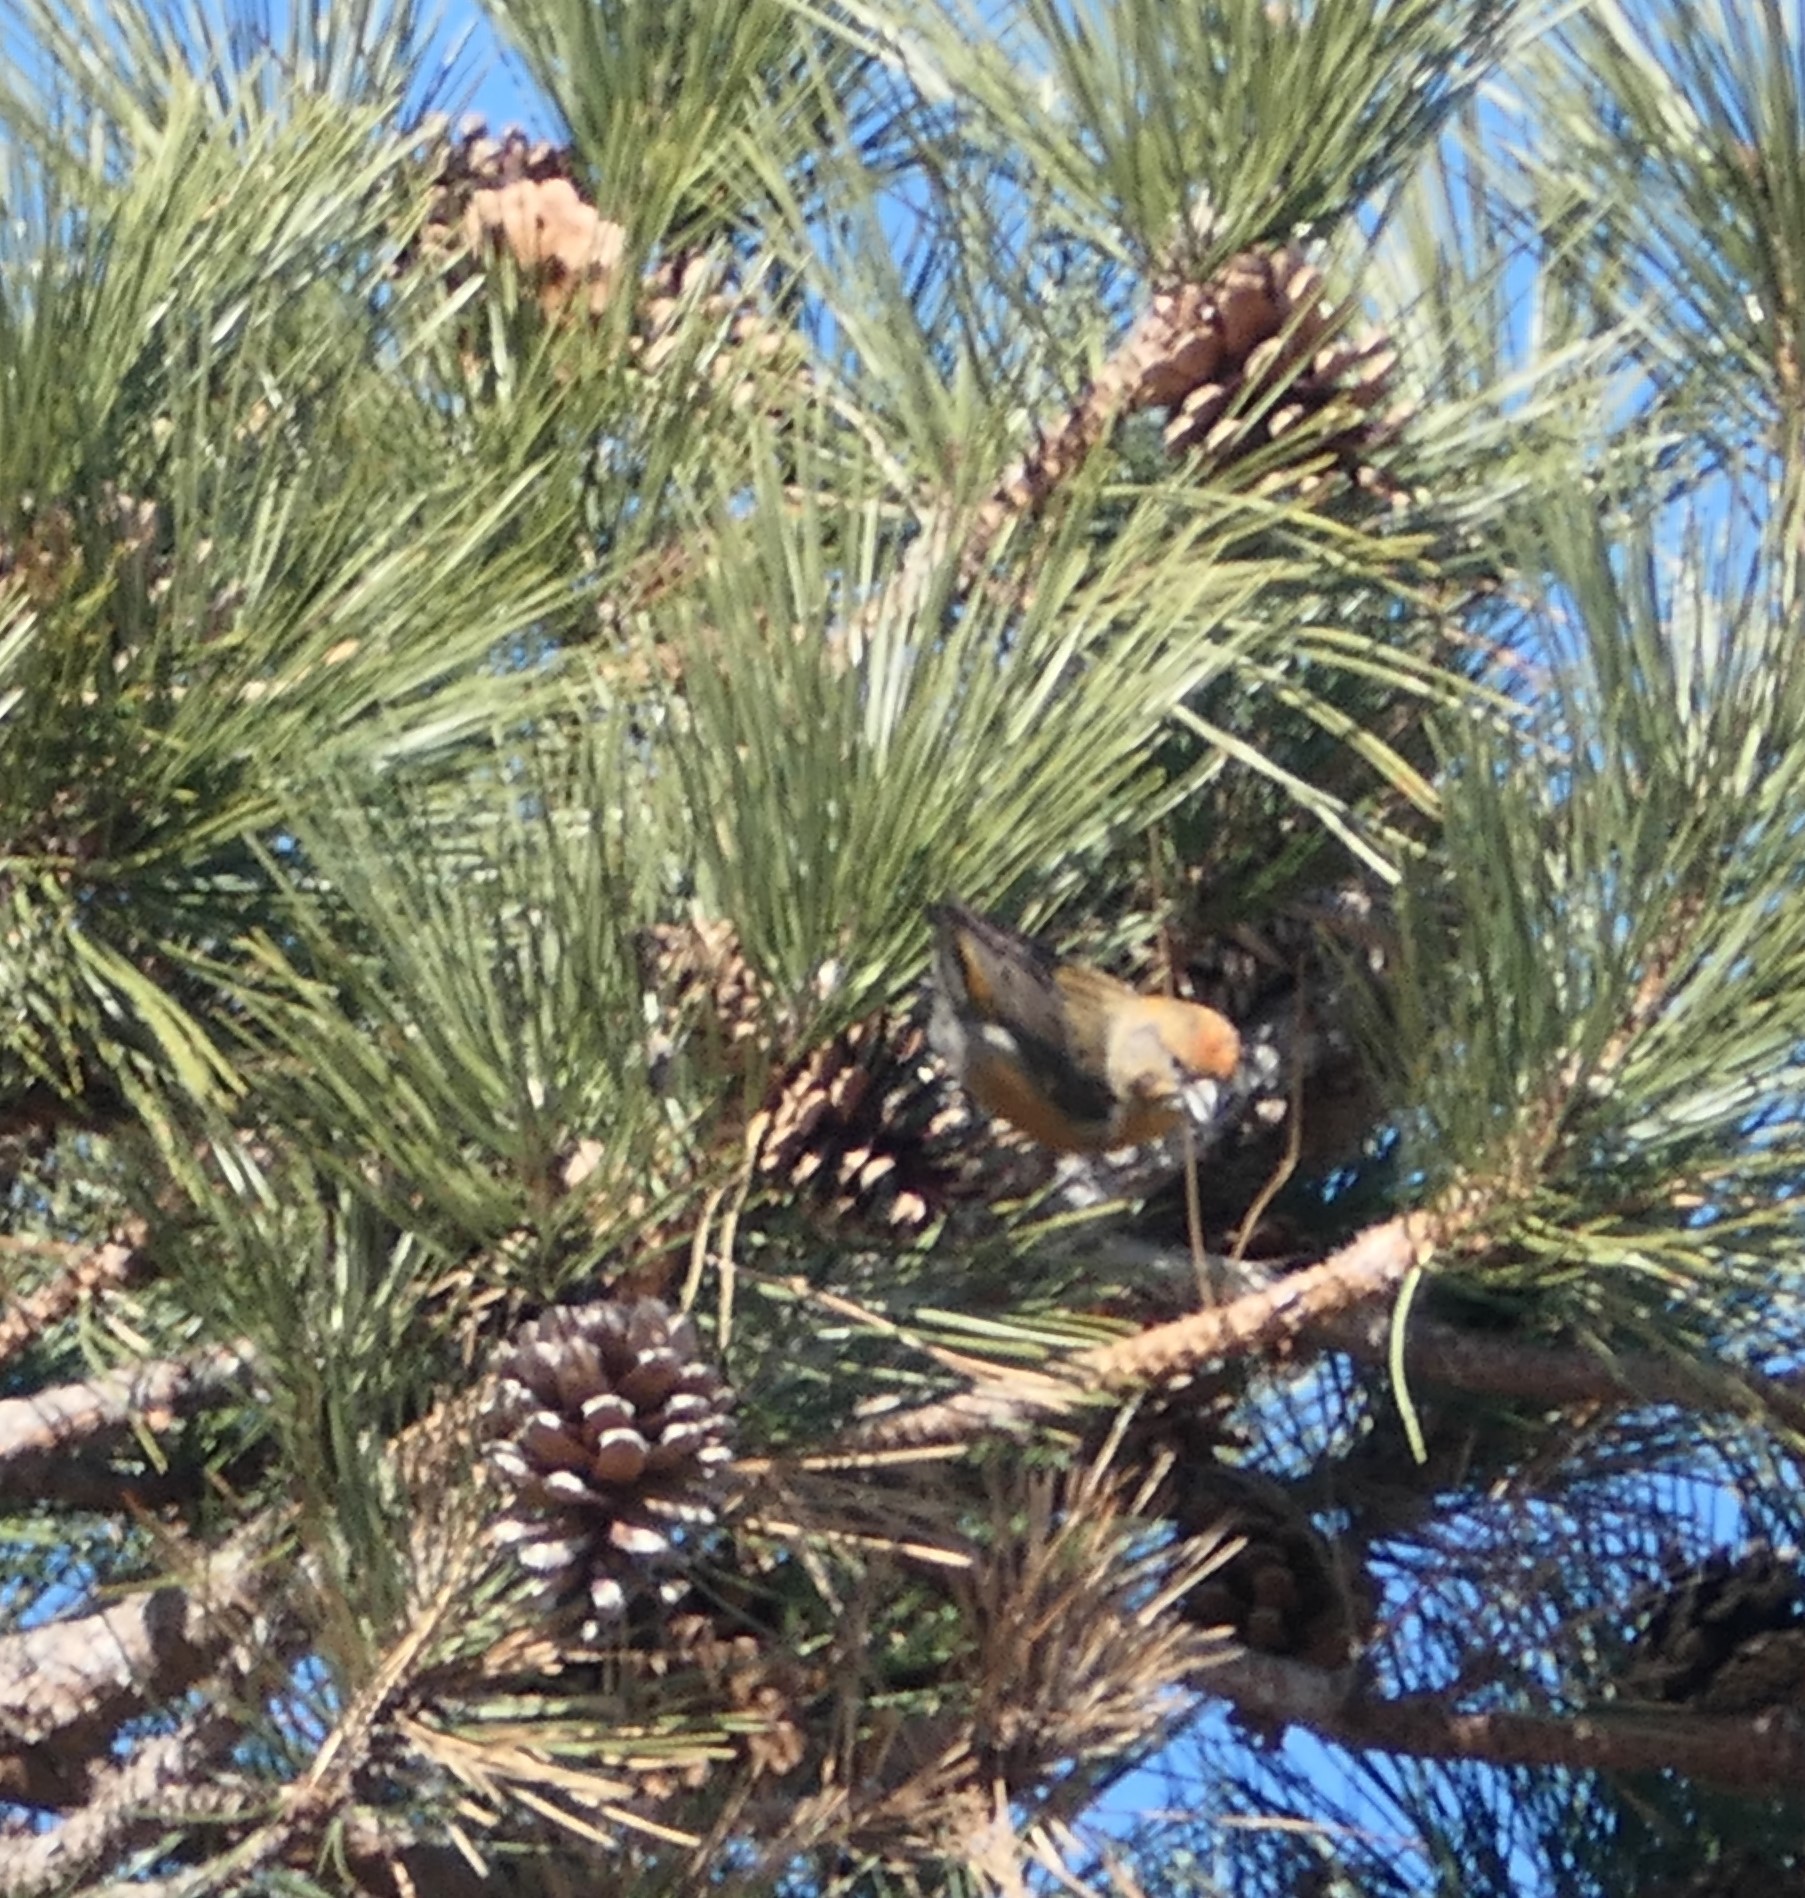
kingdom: Animalia
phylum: Chordata
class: Aves
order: Passeriformes
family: Fringillidae
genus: Loxia
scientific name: Loxia curvirostra
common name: Red crossbill
